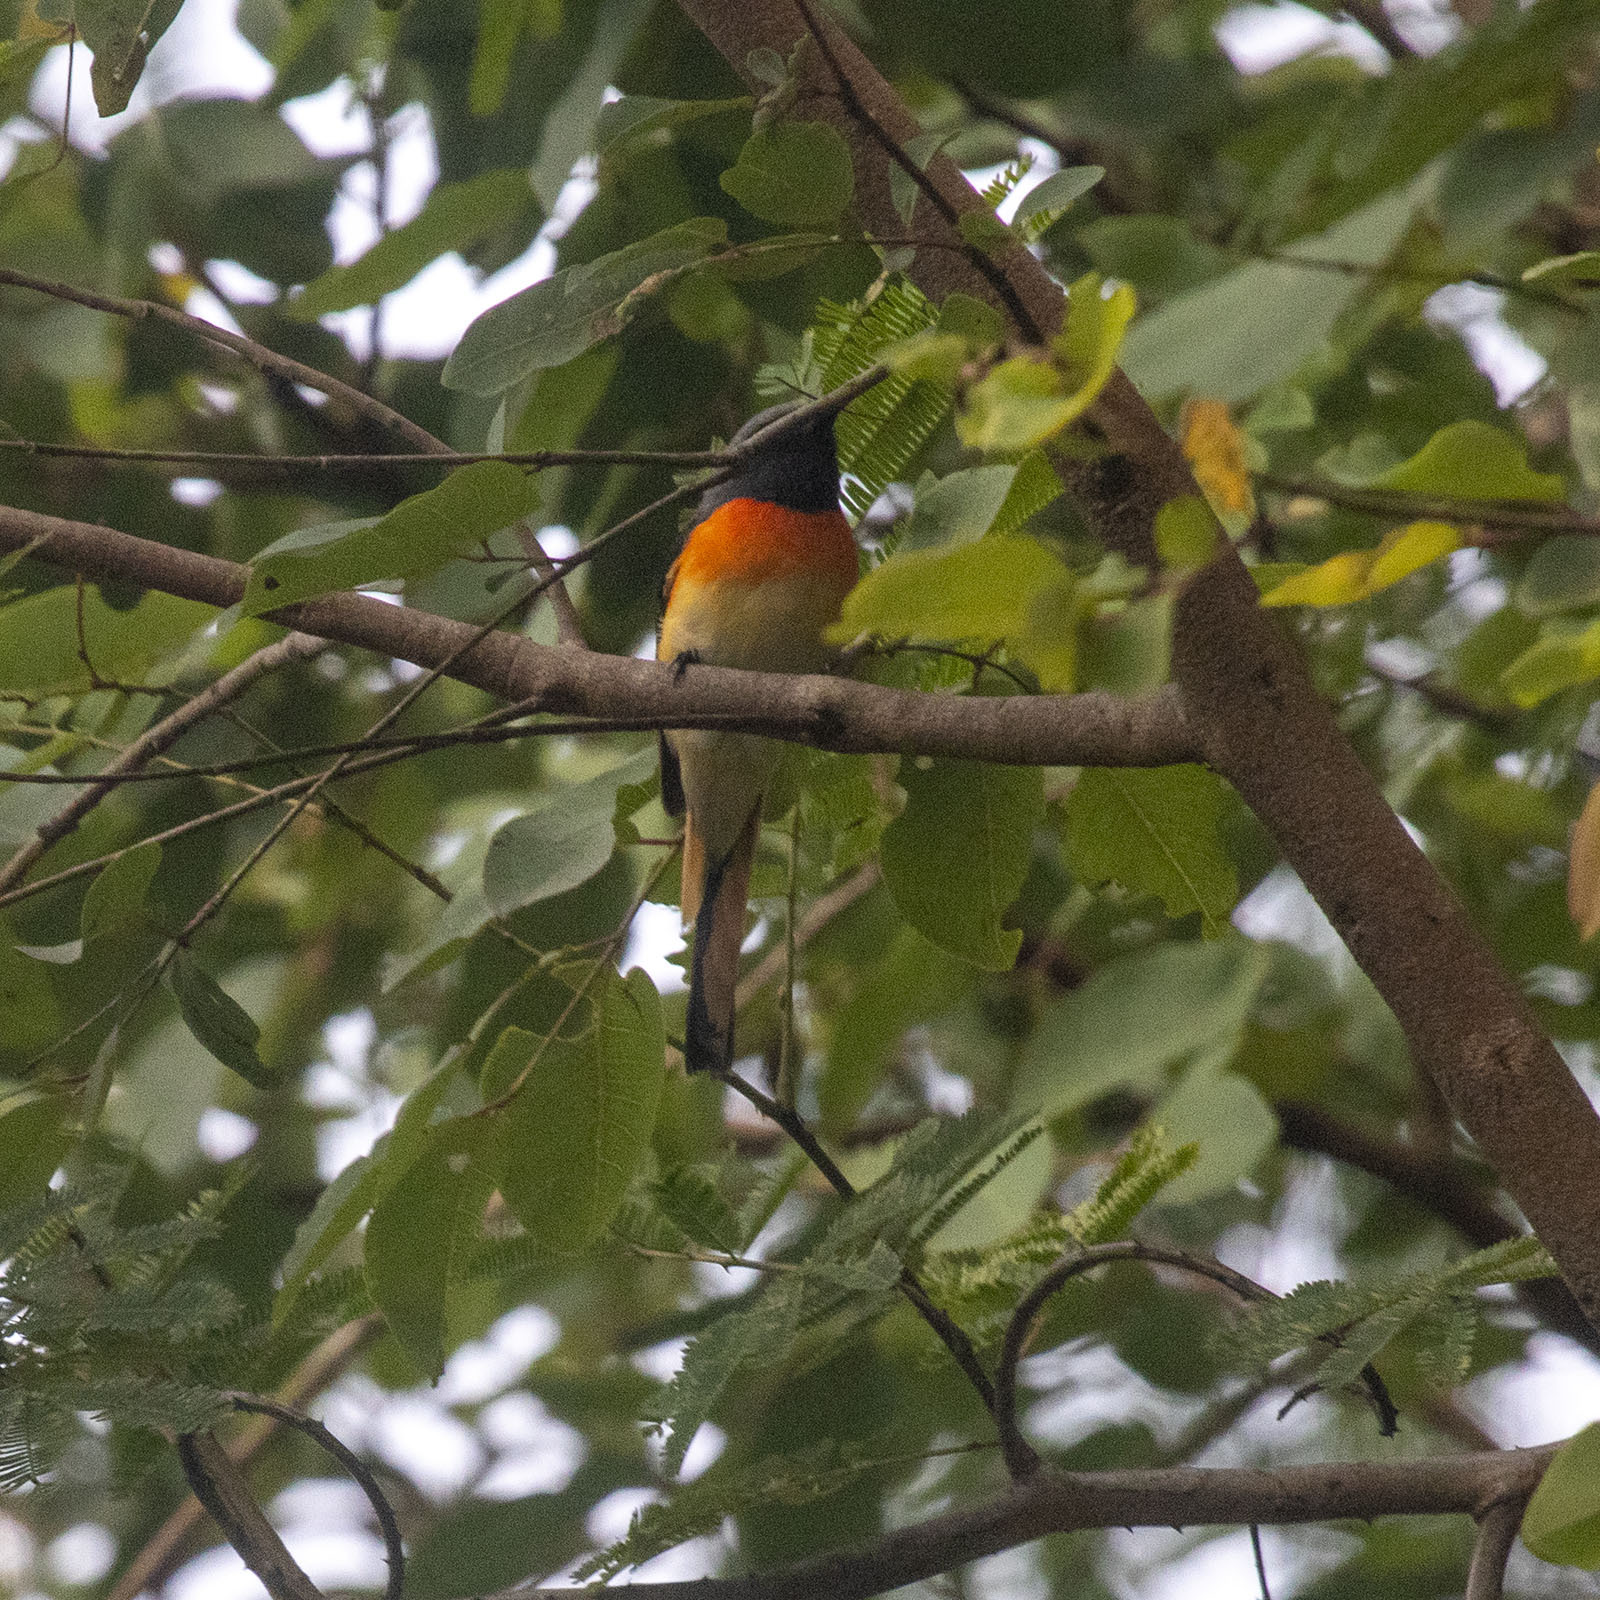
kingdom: Animalia
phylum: Chordata
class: Aves
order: Passeriformes
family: Campephagidae
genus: Pericrocotus
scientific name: Pericrocotus cinnamomeus
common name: Small minivet
